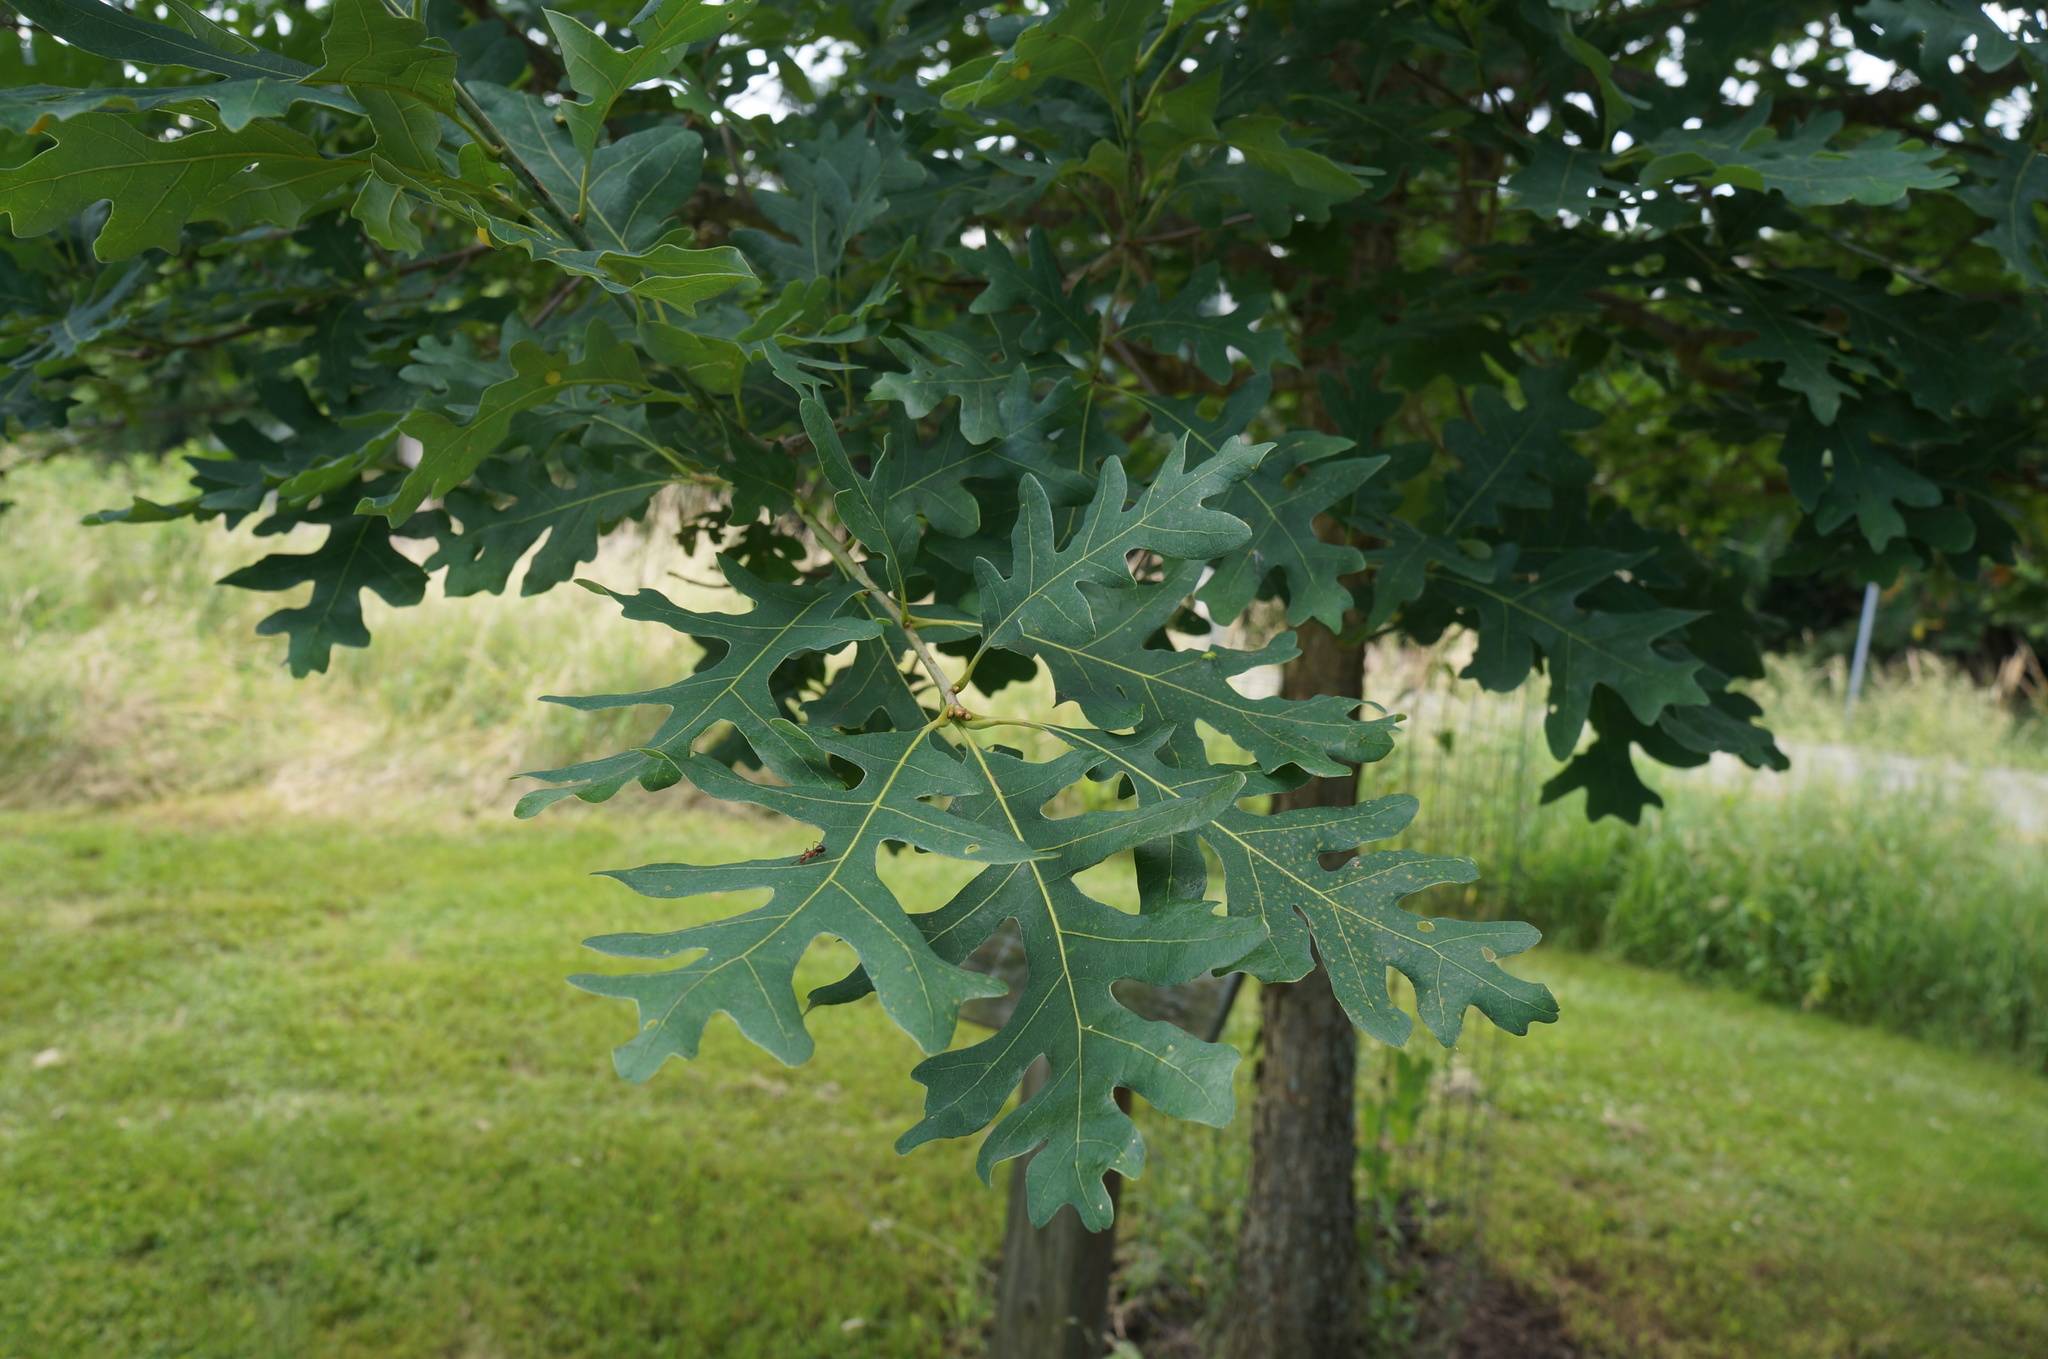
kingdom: Plantae
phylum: Tracheophyta
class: Magnoliopsida
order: Fagales
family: Fagaceae
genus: Quercus
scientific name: Quercus alba
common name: White oak
